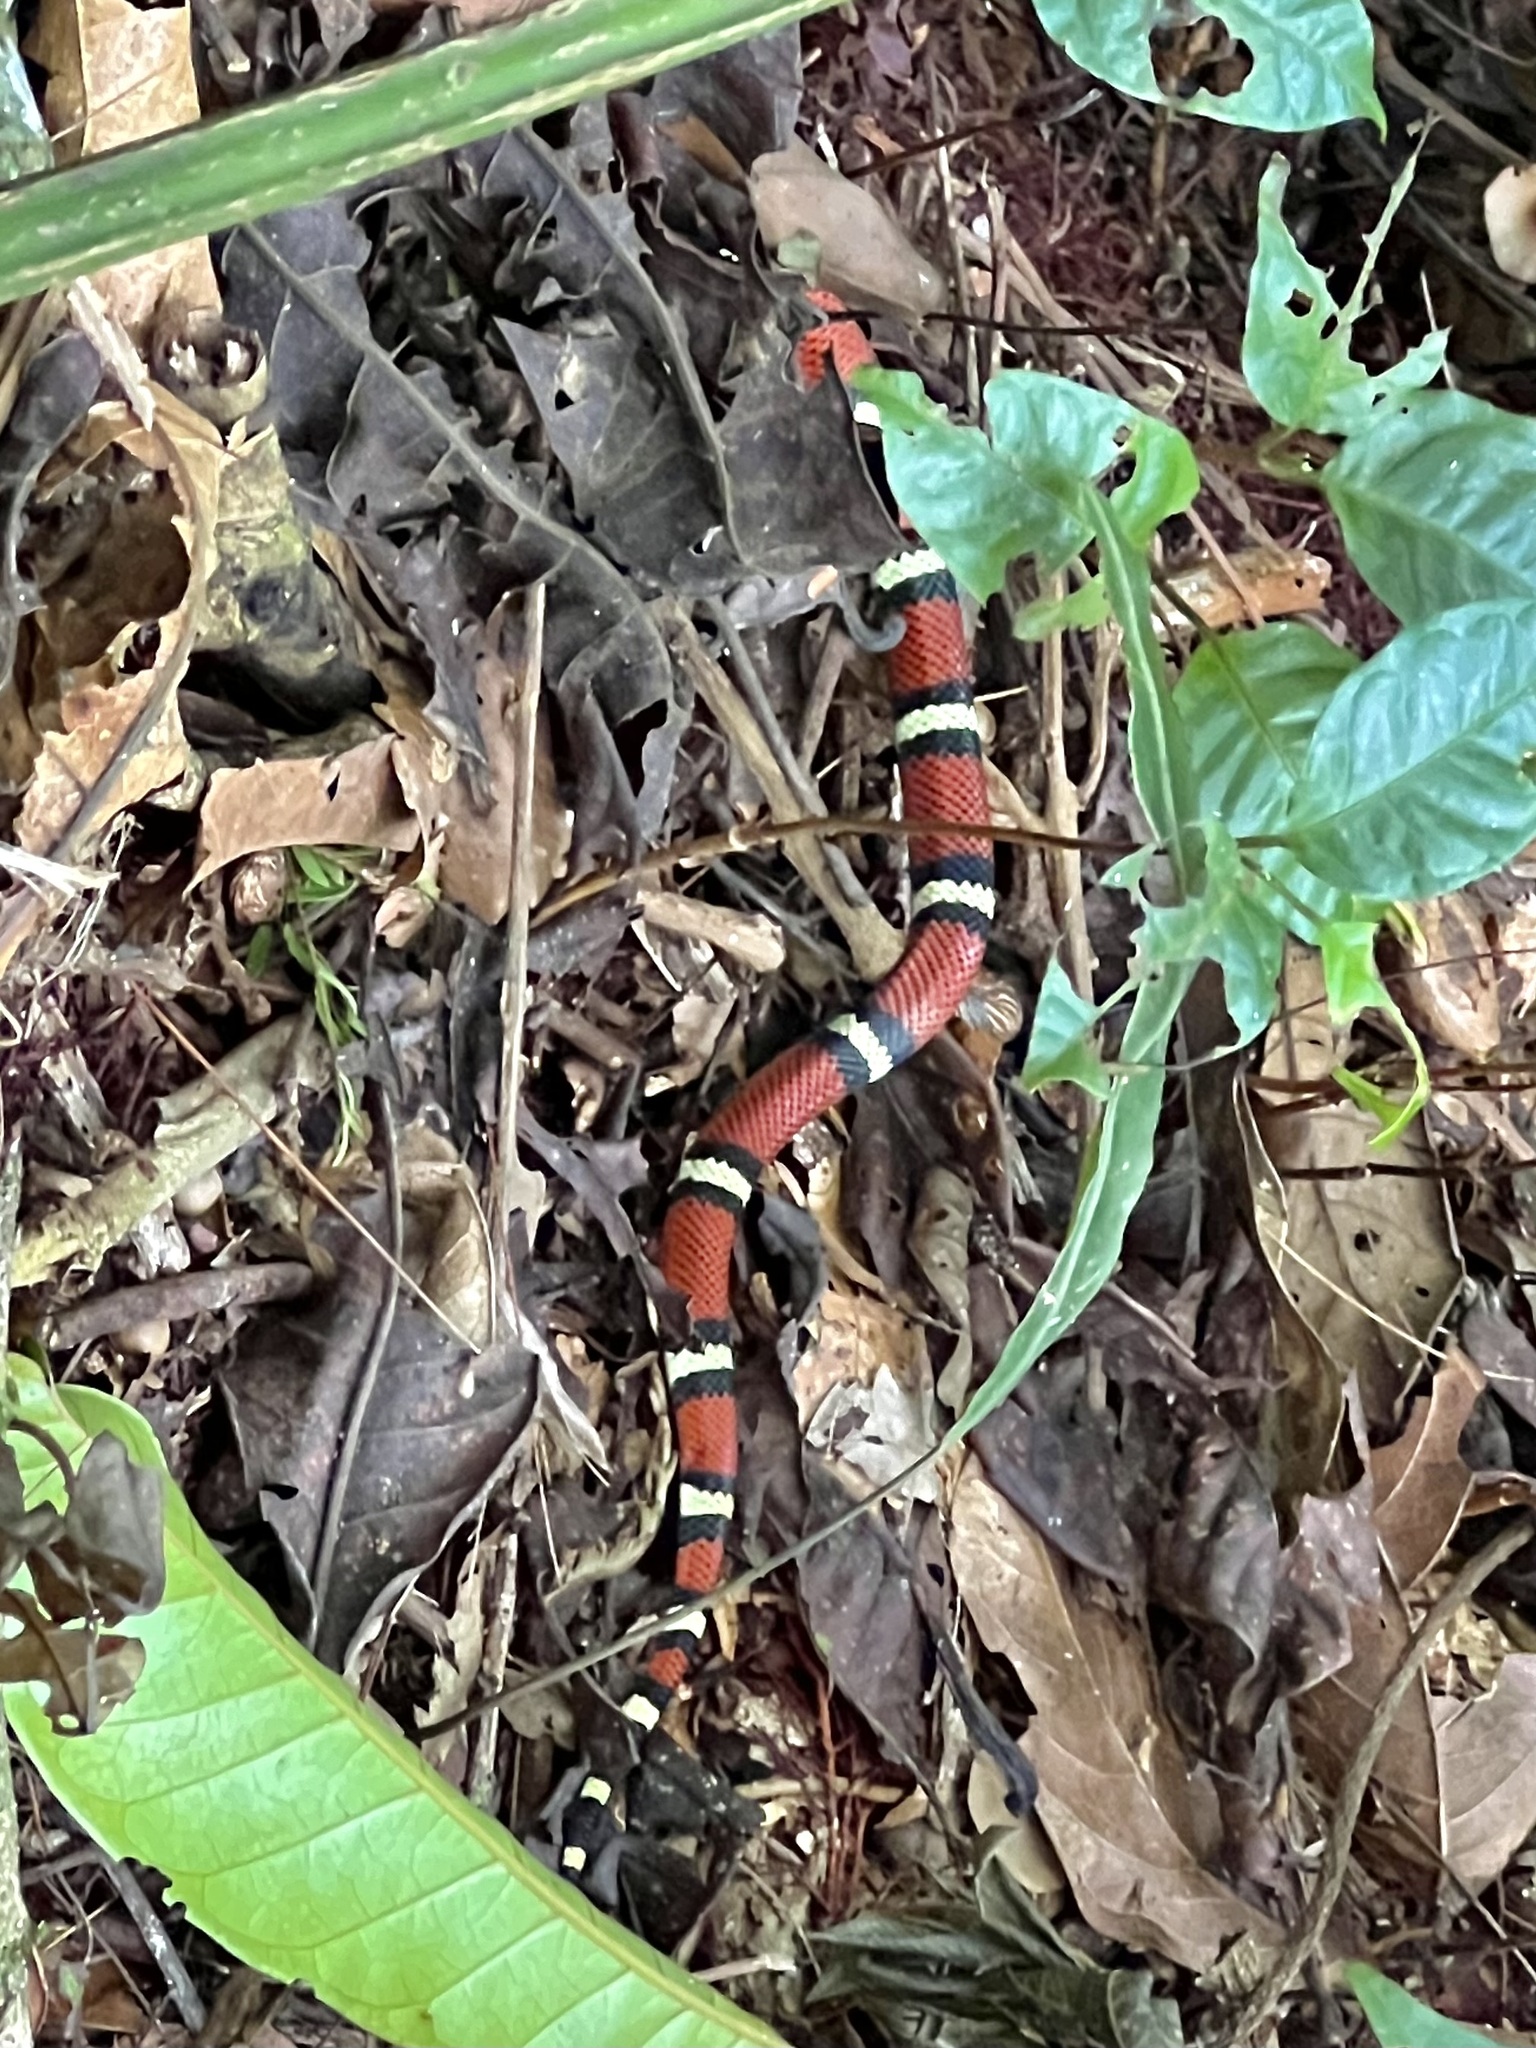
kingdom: Animalia
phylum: Chordata
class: Squamata
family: Colubridae
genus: Lampropeltis
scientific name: Lampropeltis abnorma
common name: Honduran milk snake
